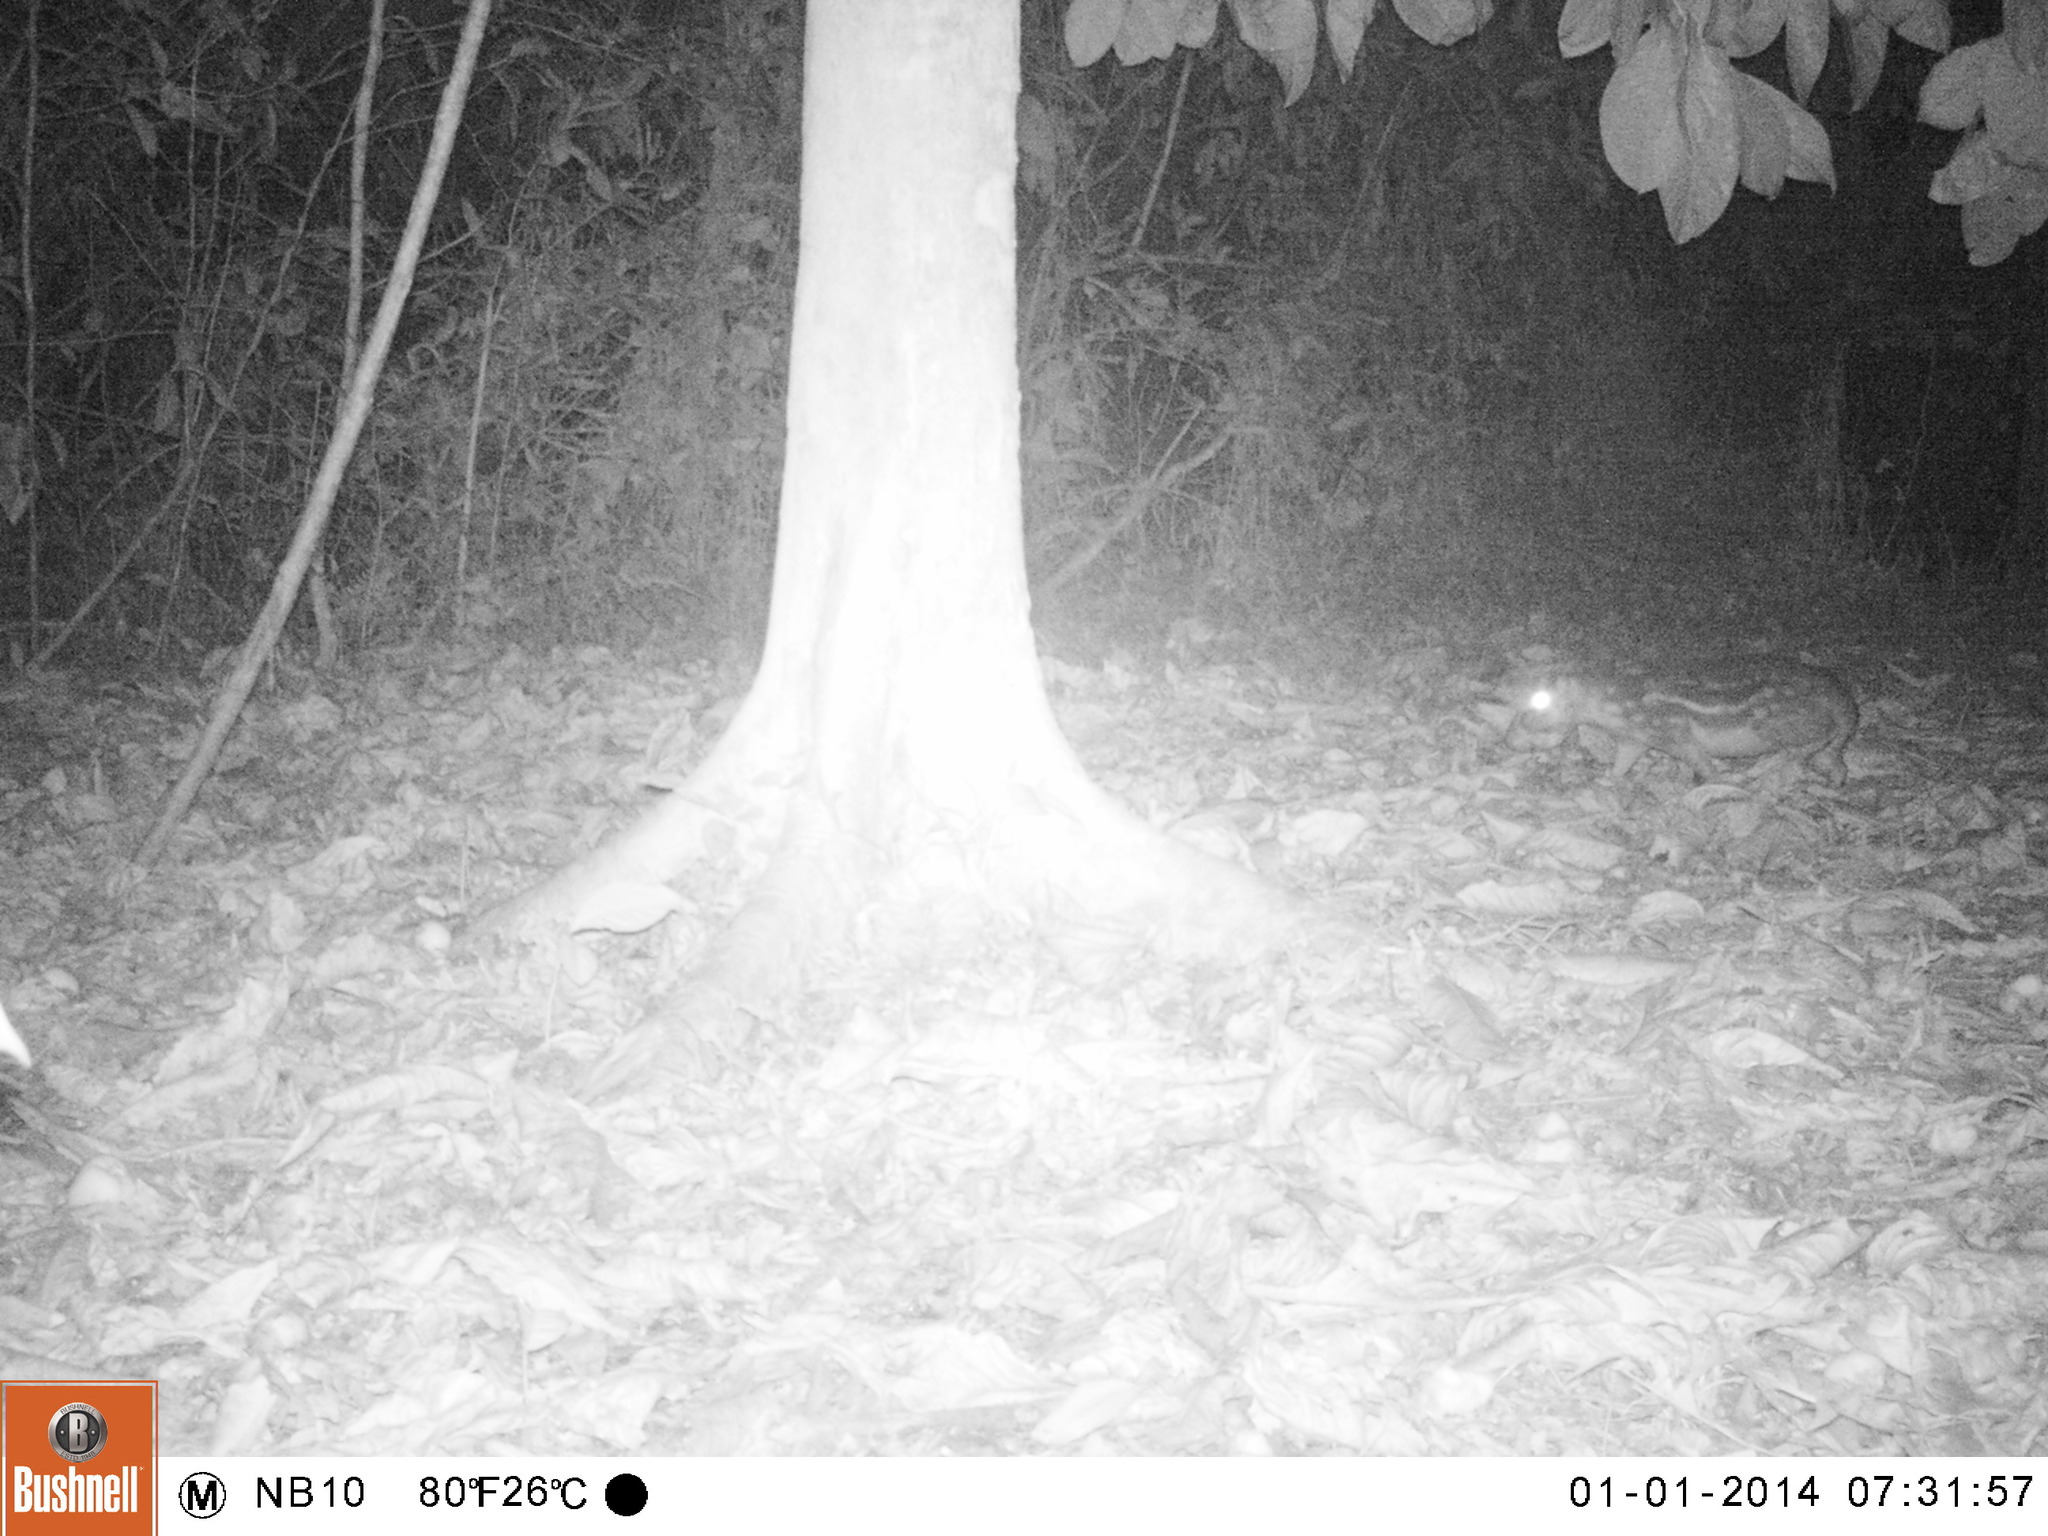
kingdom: Animalia
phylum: Chordata
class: Mammalia
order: Rodentia
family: Cuniculidae
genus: Cuniculus
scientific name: Cuniculus paca
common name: Lowland paca
